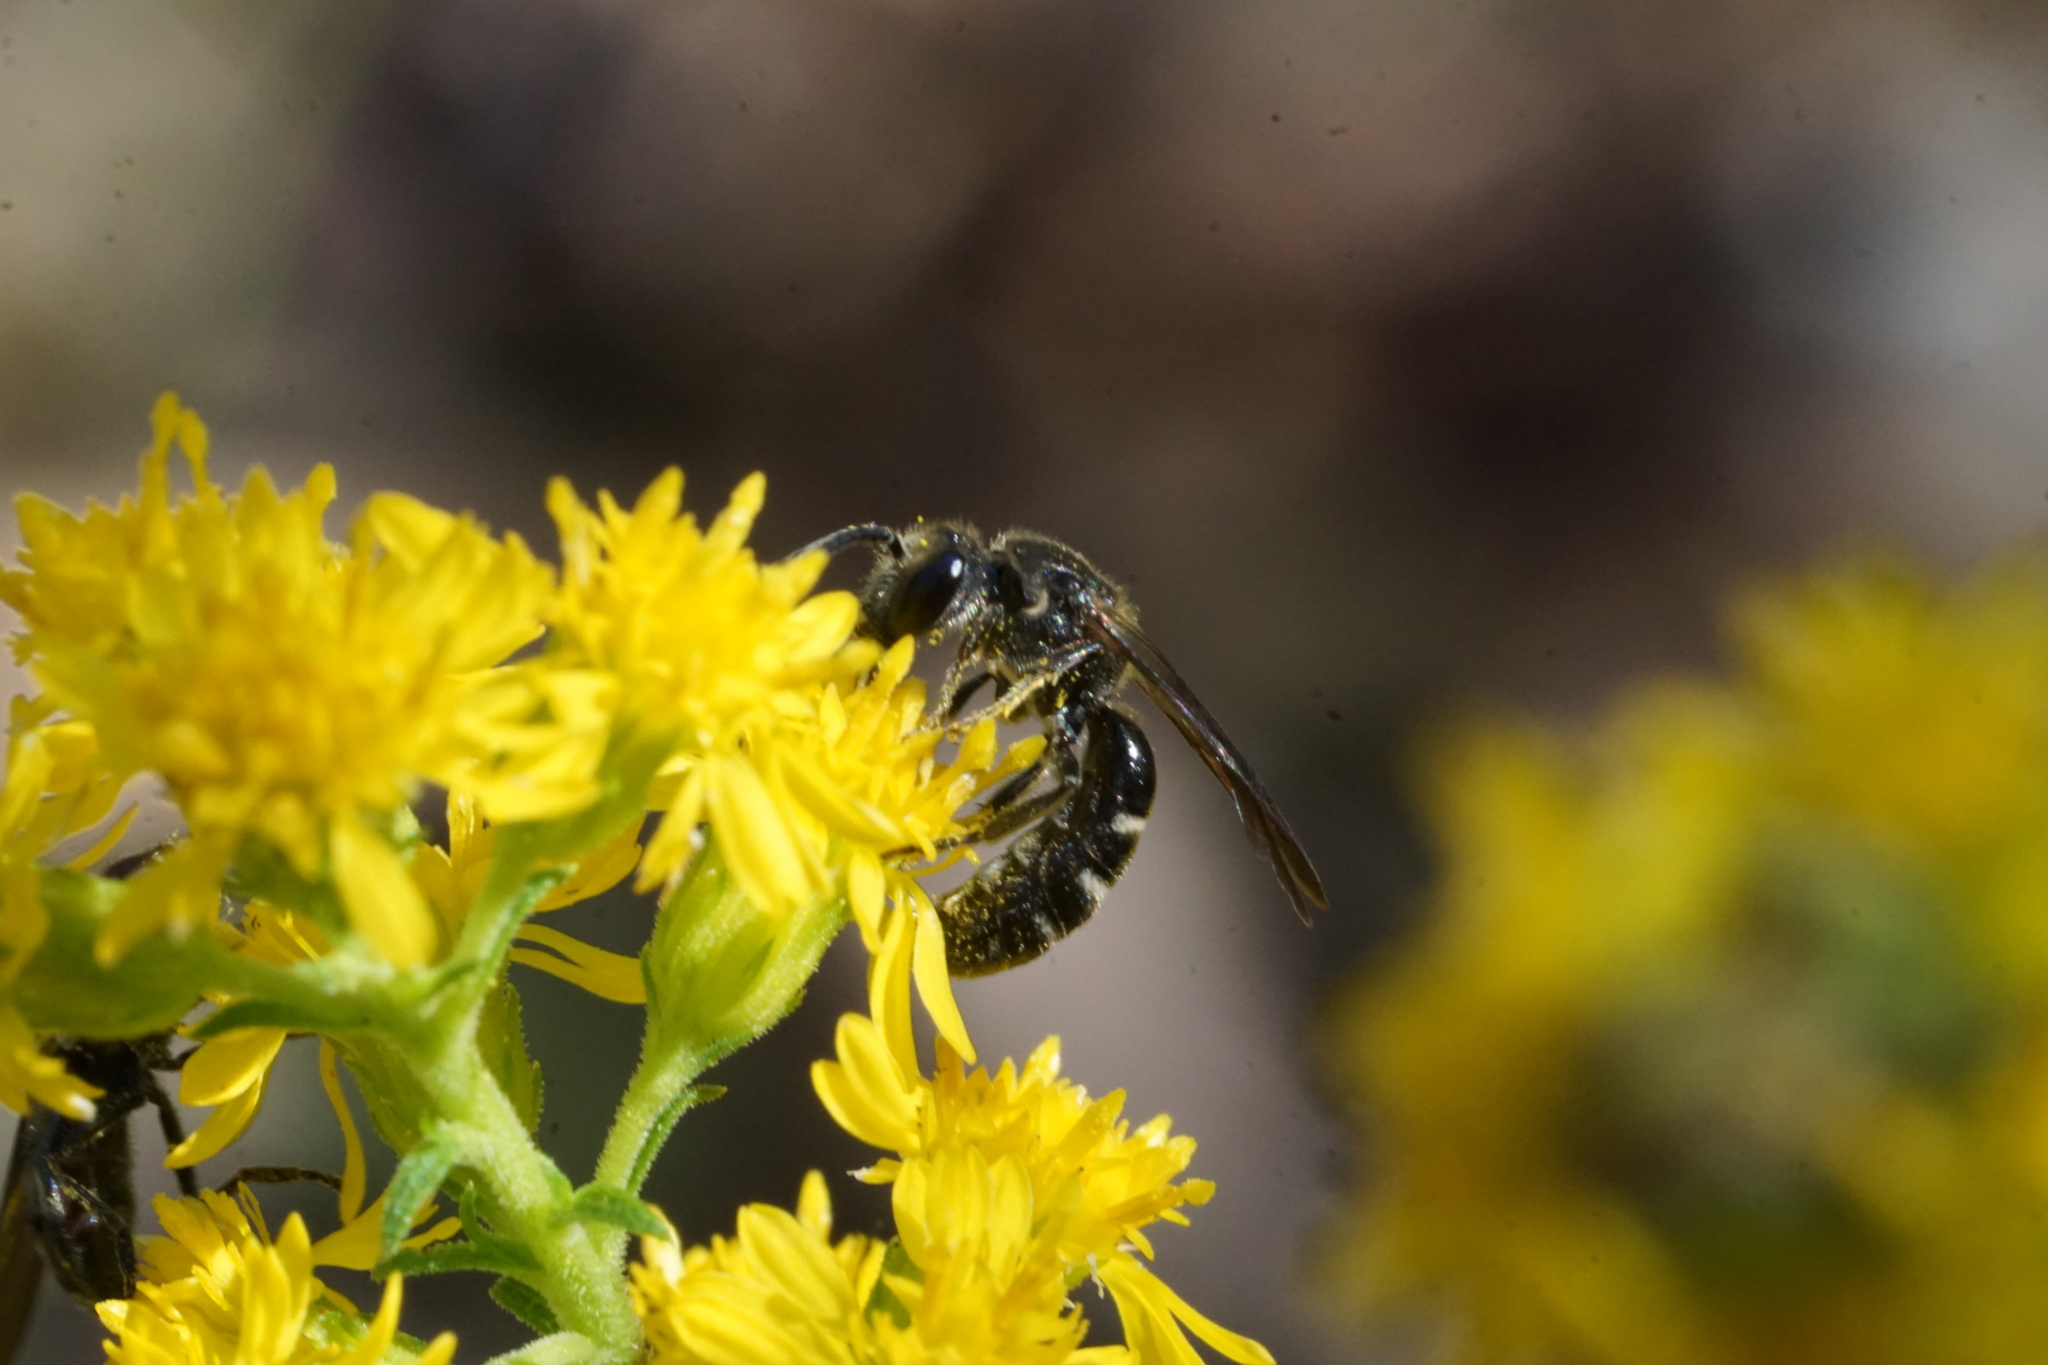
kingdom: Animalia
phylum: Arthropoda
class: Insecta
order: Hymenoptera
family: Halictidae
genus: Lasioglossum
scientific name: Lasioglossum fuscipenne
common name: Brown-winged sweat bee
